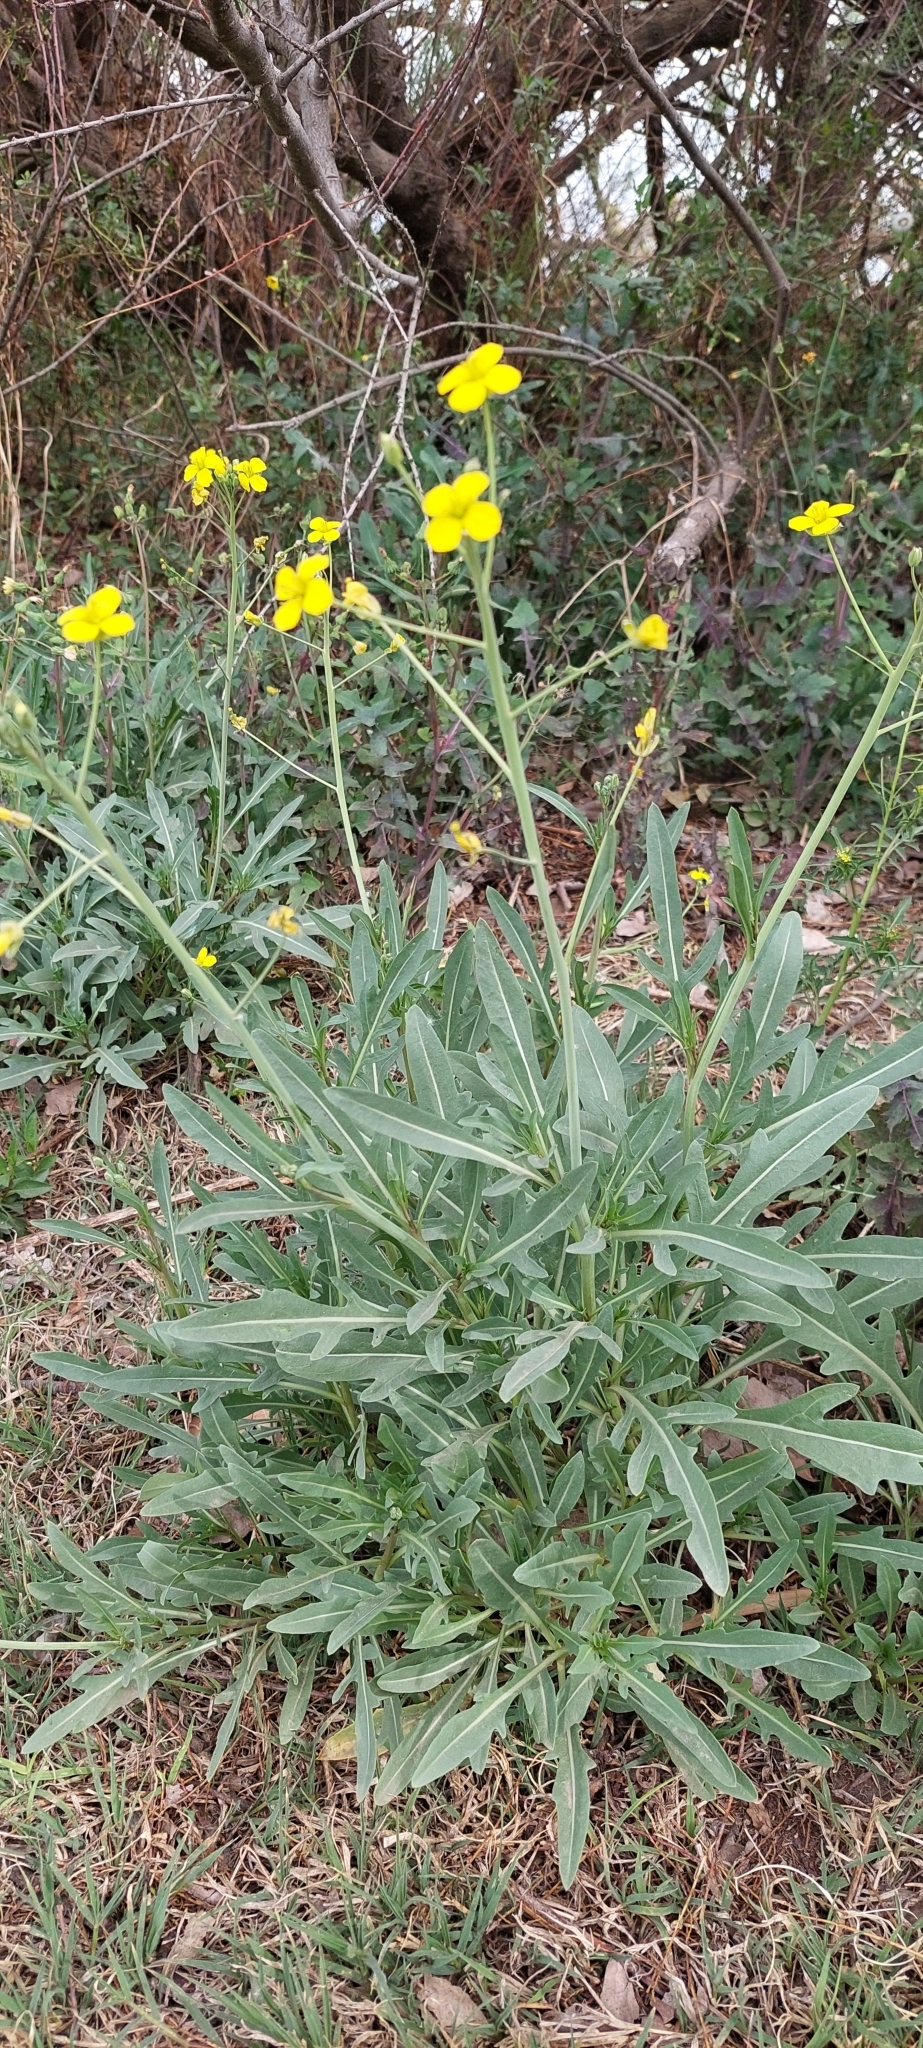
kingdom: Plantae
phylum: Tracheophyta
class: Magnoliopsida
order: Brassicales
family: Brassicaceae
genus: Diplotaxis
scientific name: Diplotaxis tenuifolia
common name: Perennial wall-rocket
